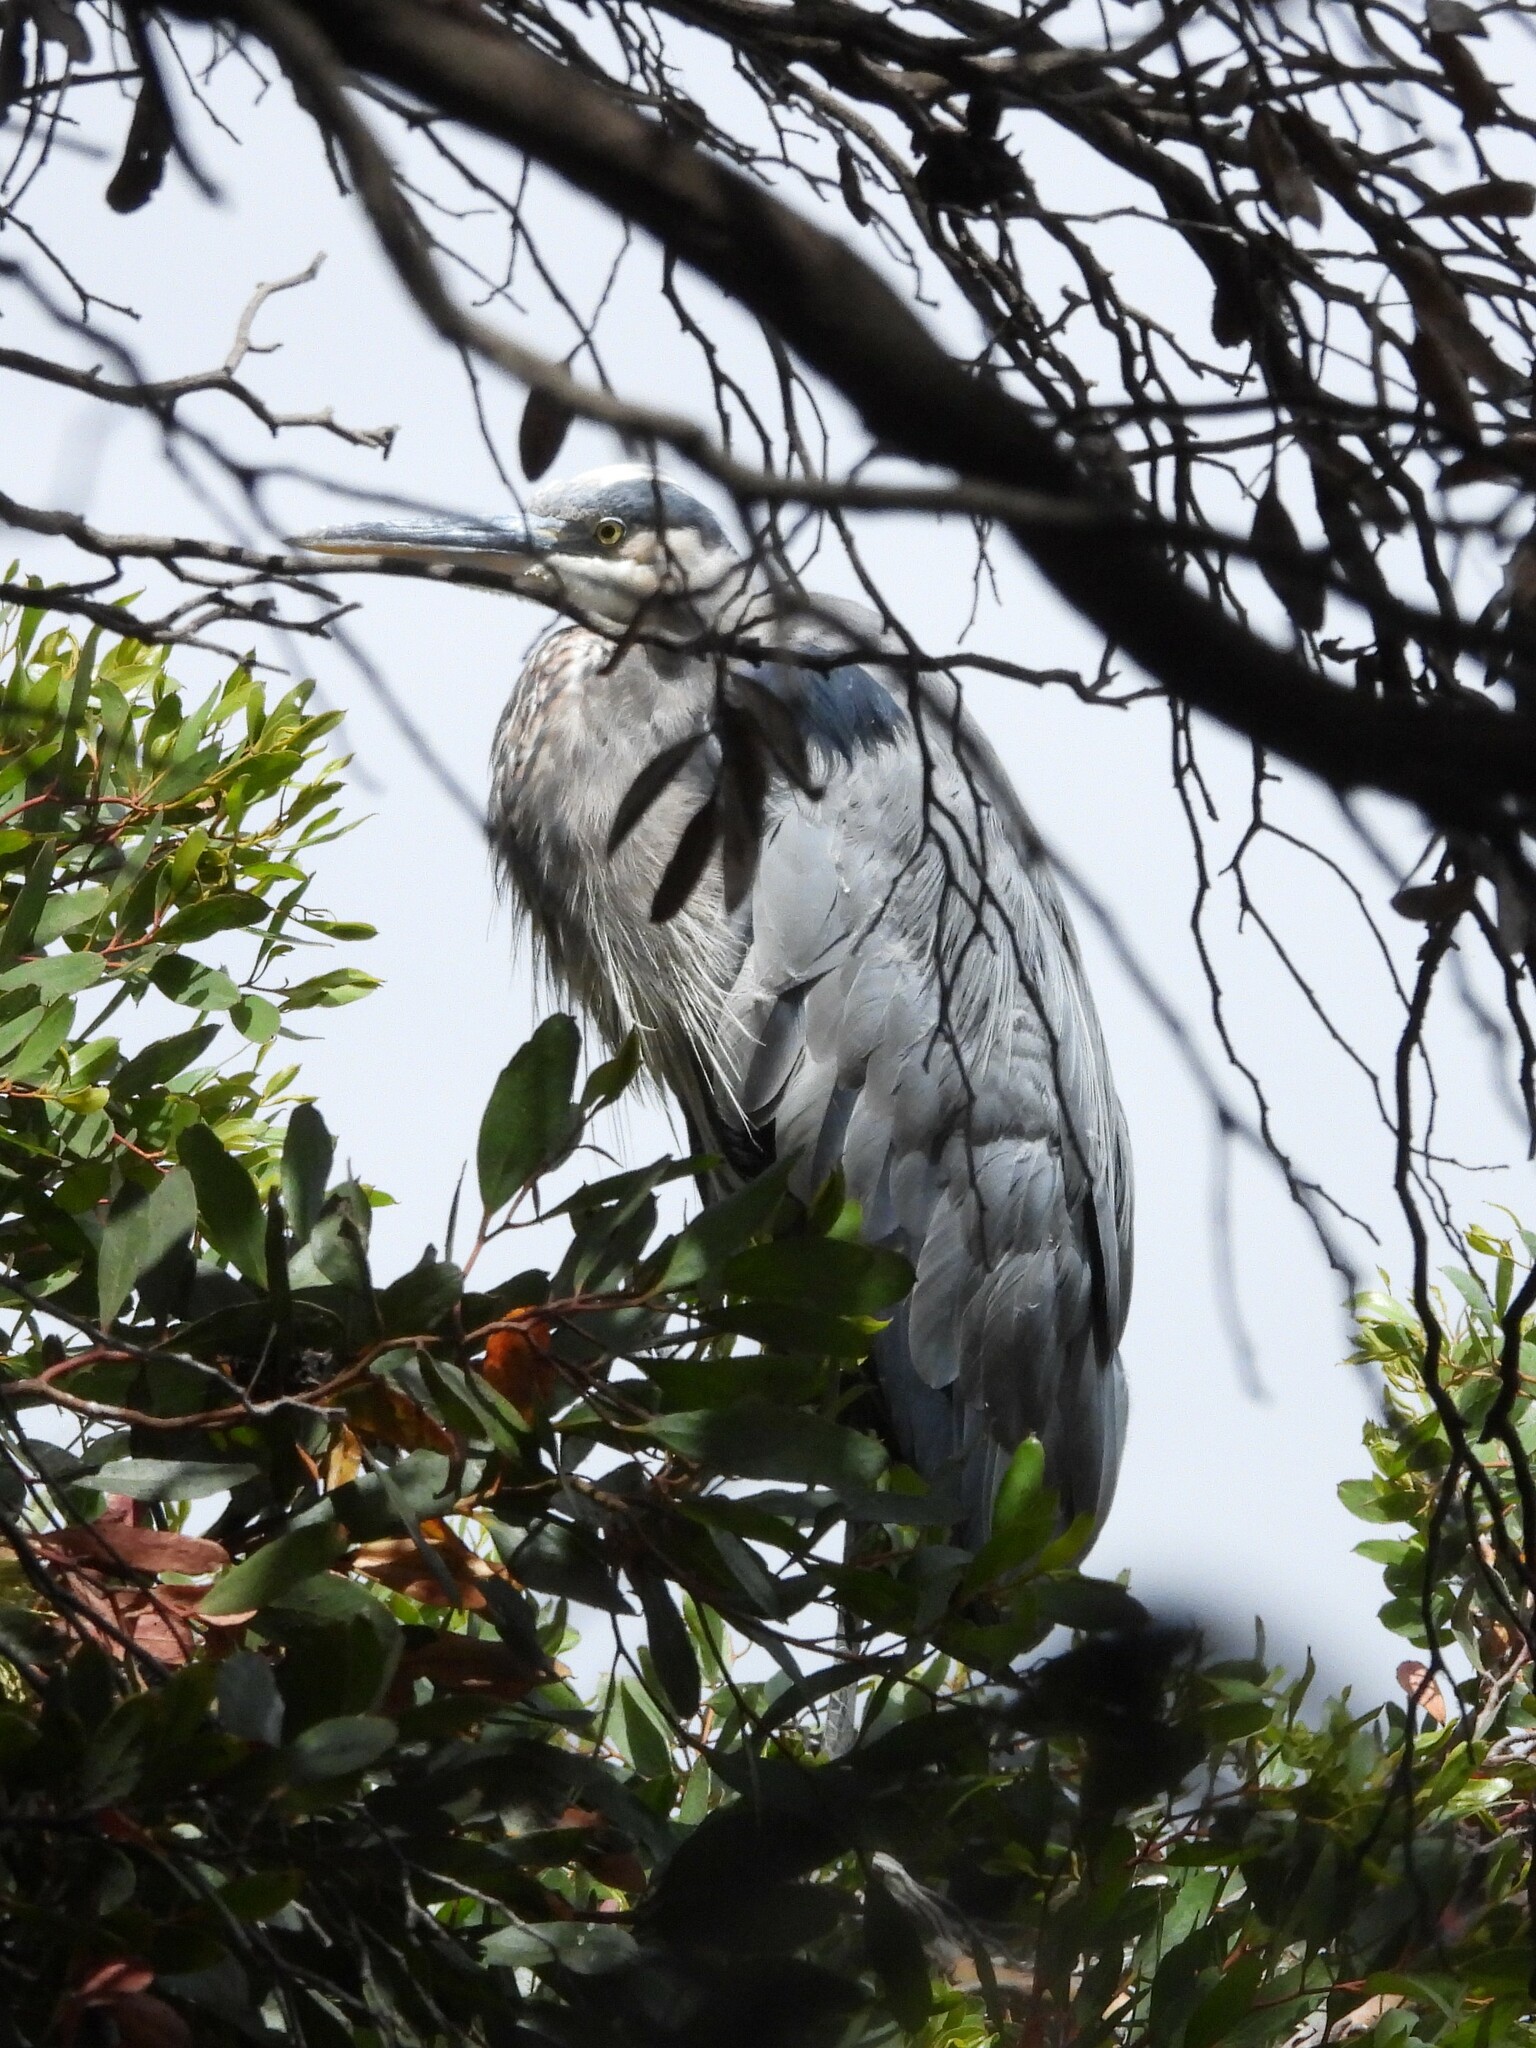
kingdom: Animalia
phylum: Chordata
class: Aves
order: Pelecaniformes
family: Ardeidae
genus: Ardea
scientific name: Ardea herodias
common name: Great blue heron
